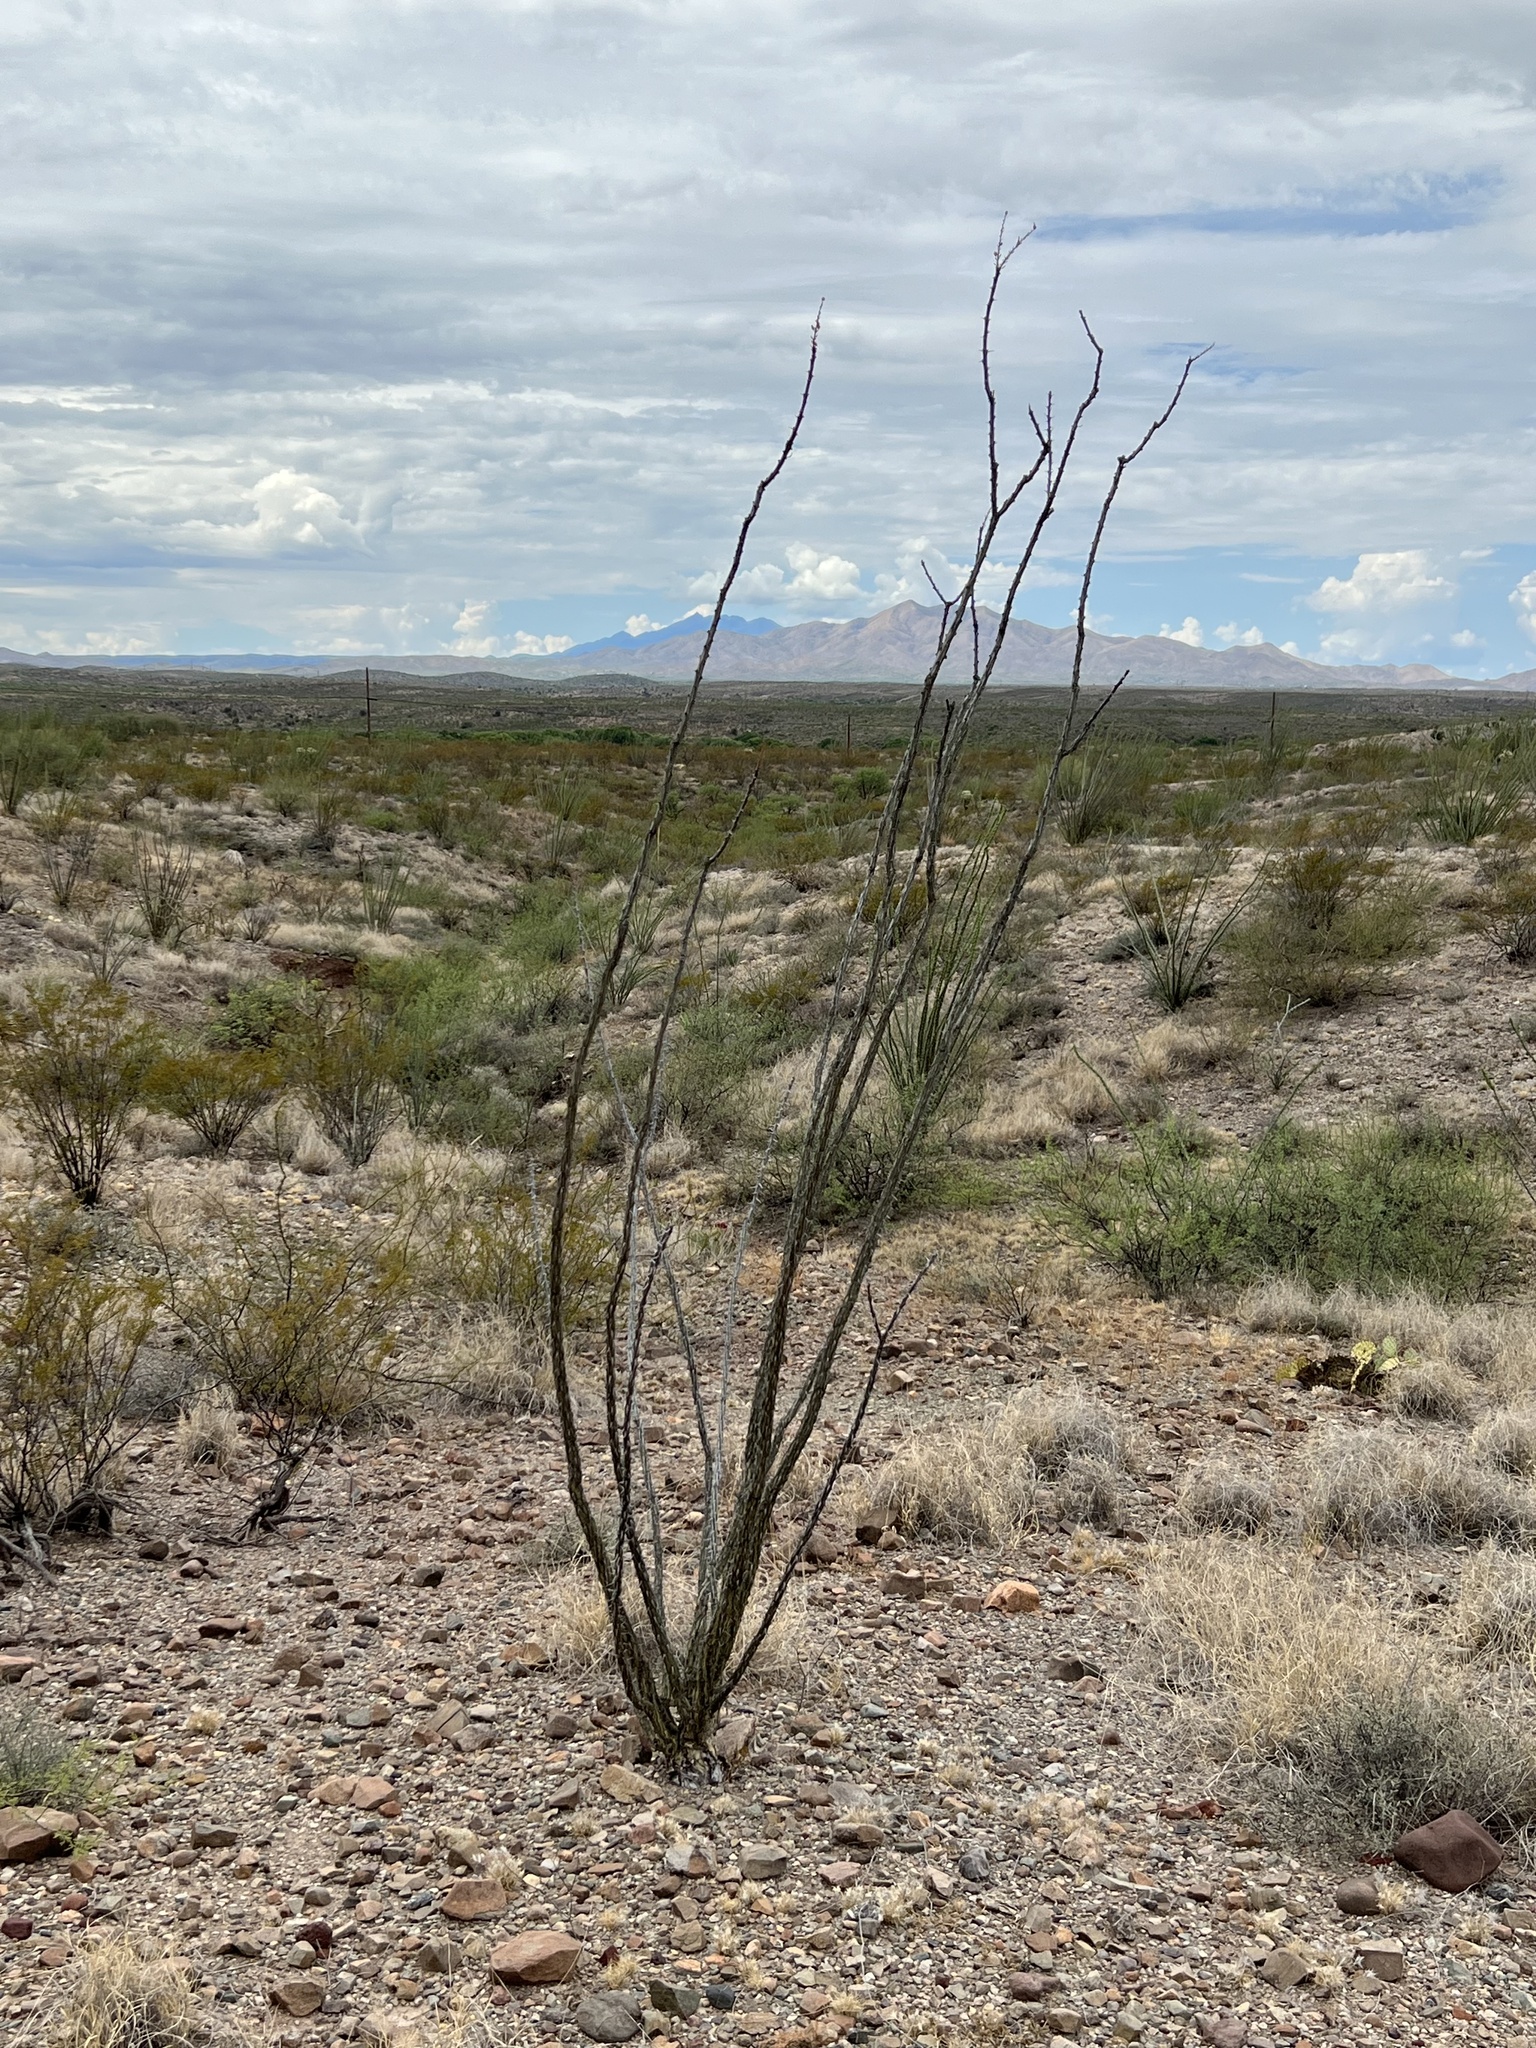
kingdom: Plantae
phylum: Tracheophyta
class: Magnoliopsida
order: Ericales
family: Fouquieriaceae
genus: Fouquieria
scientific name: Fouquieria splendens
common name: Vine-cactus
